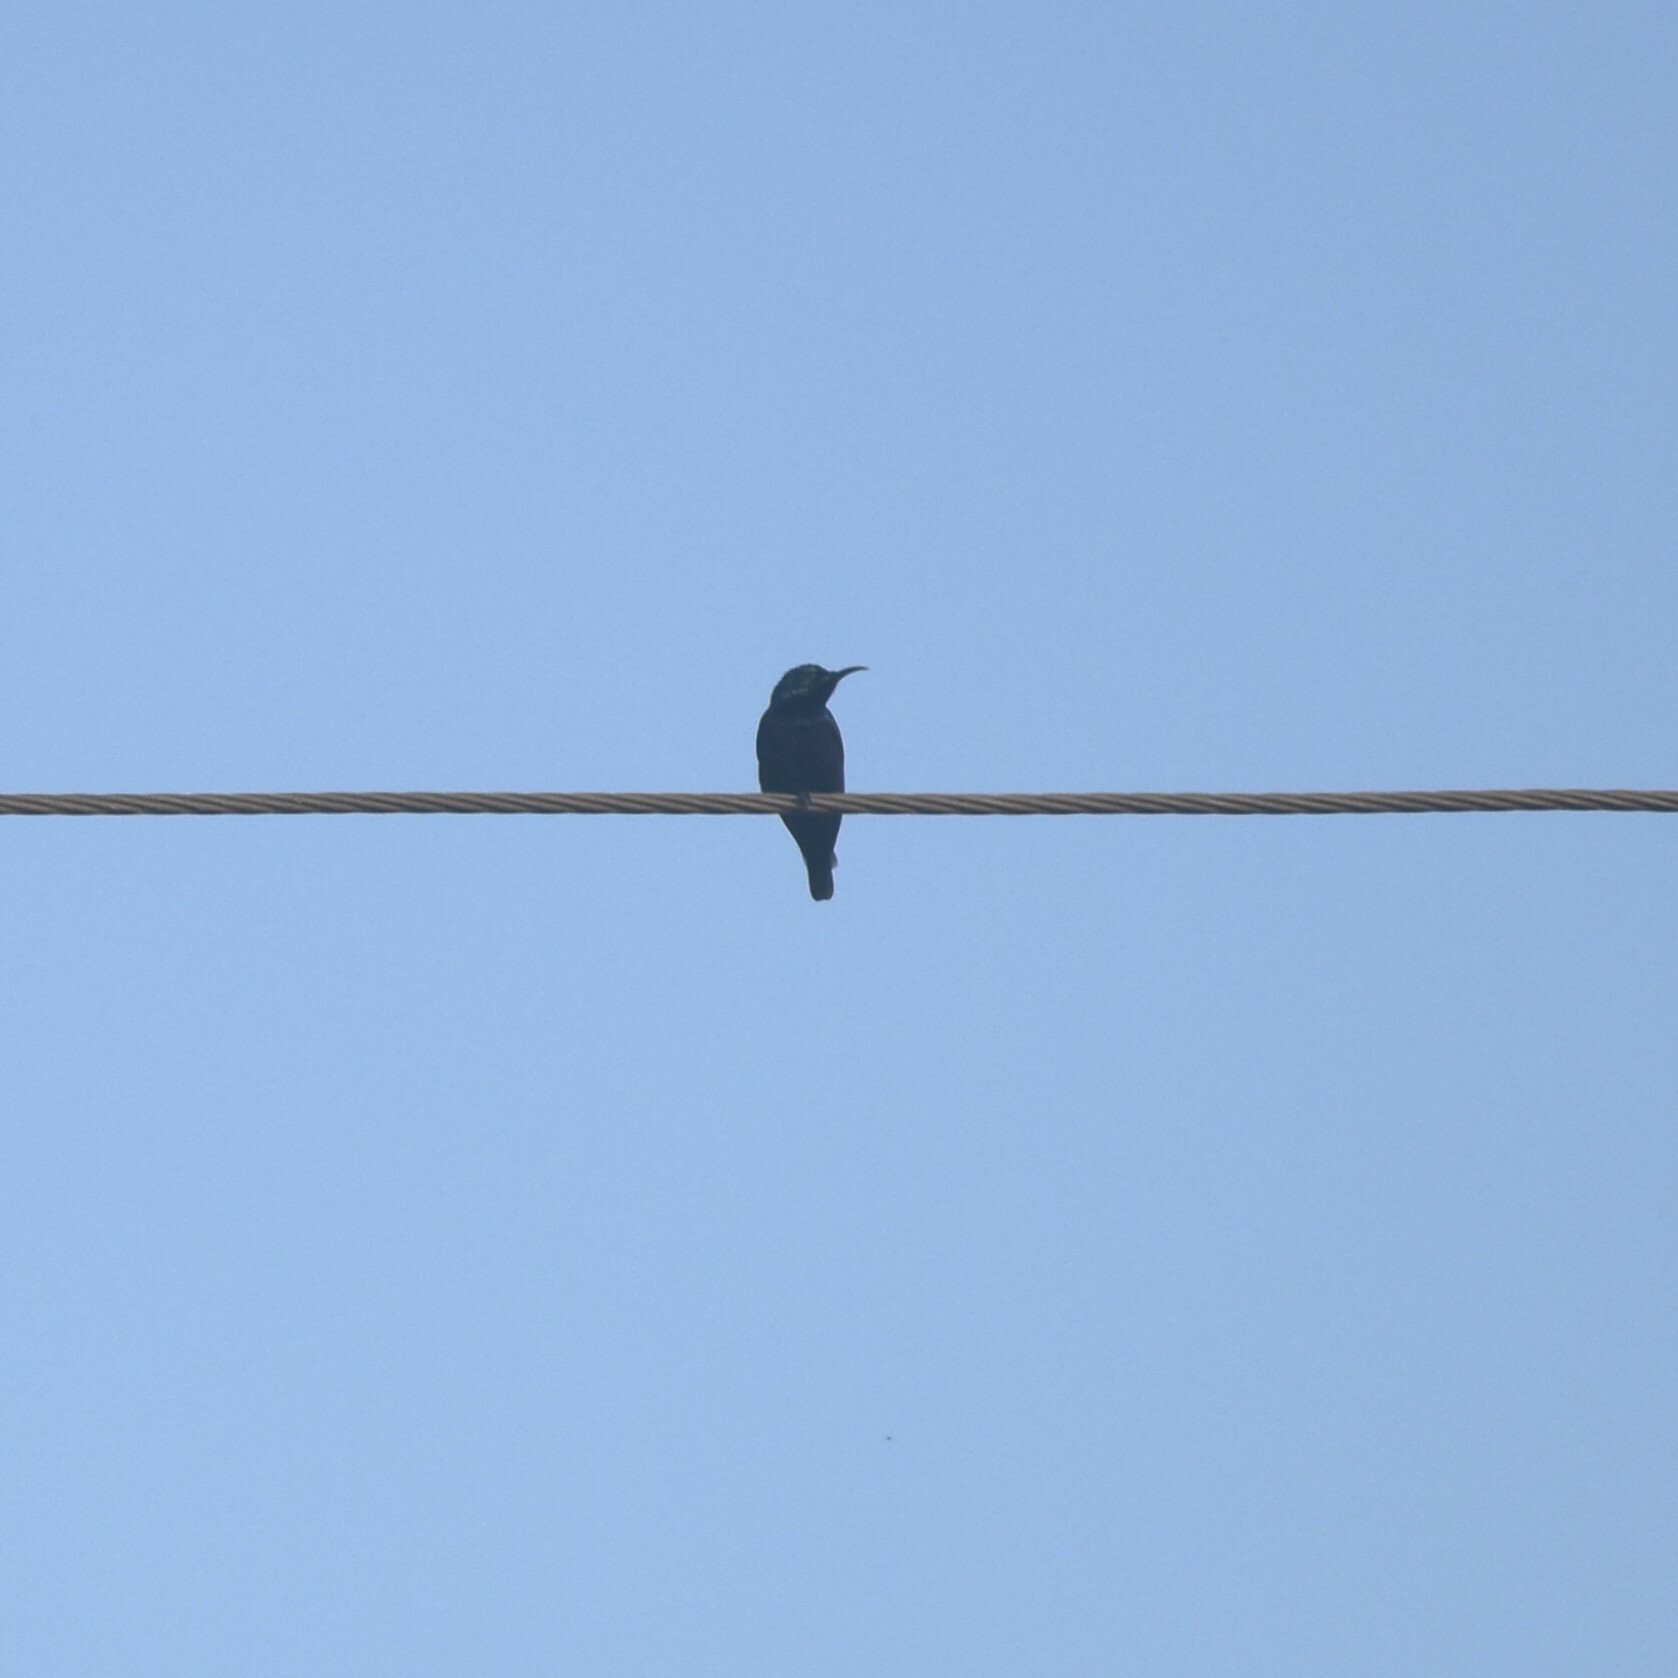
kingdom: Animalia
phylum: Chordata
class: Aves
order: Passeriformes
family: Nectariniidae
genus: Cinnyris
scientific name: Cinnyris asiaticus
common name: Purple sunbird
